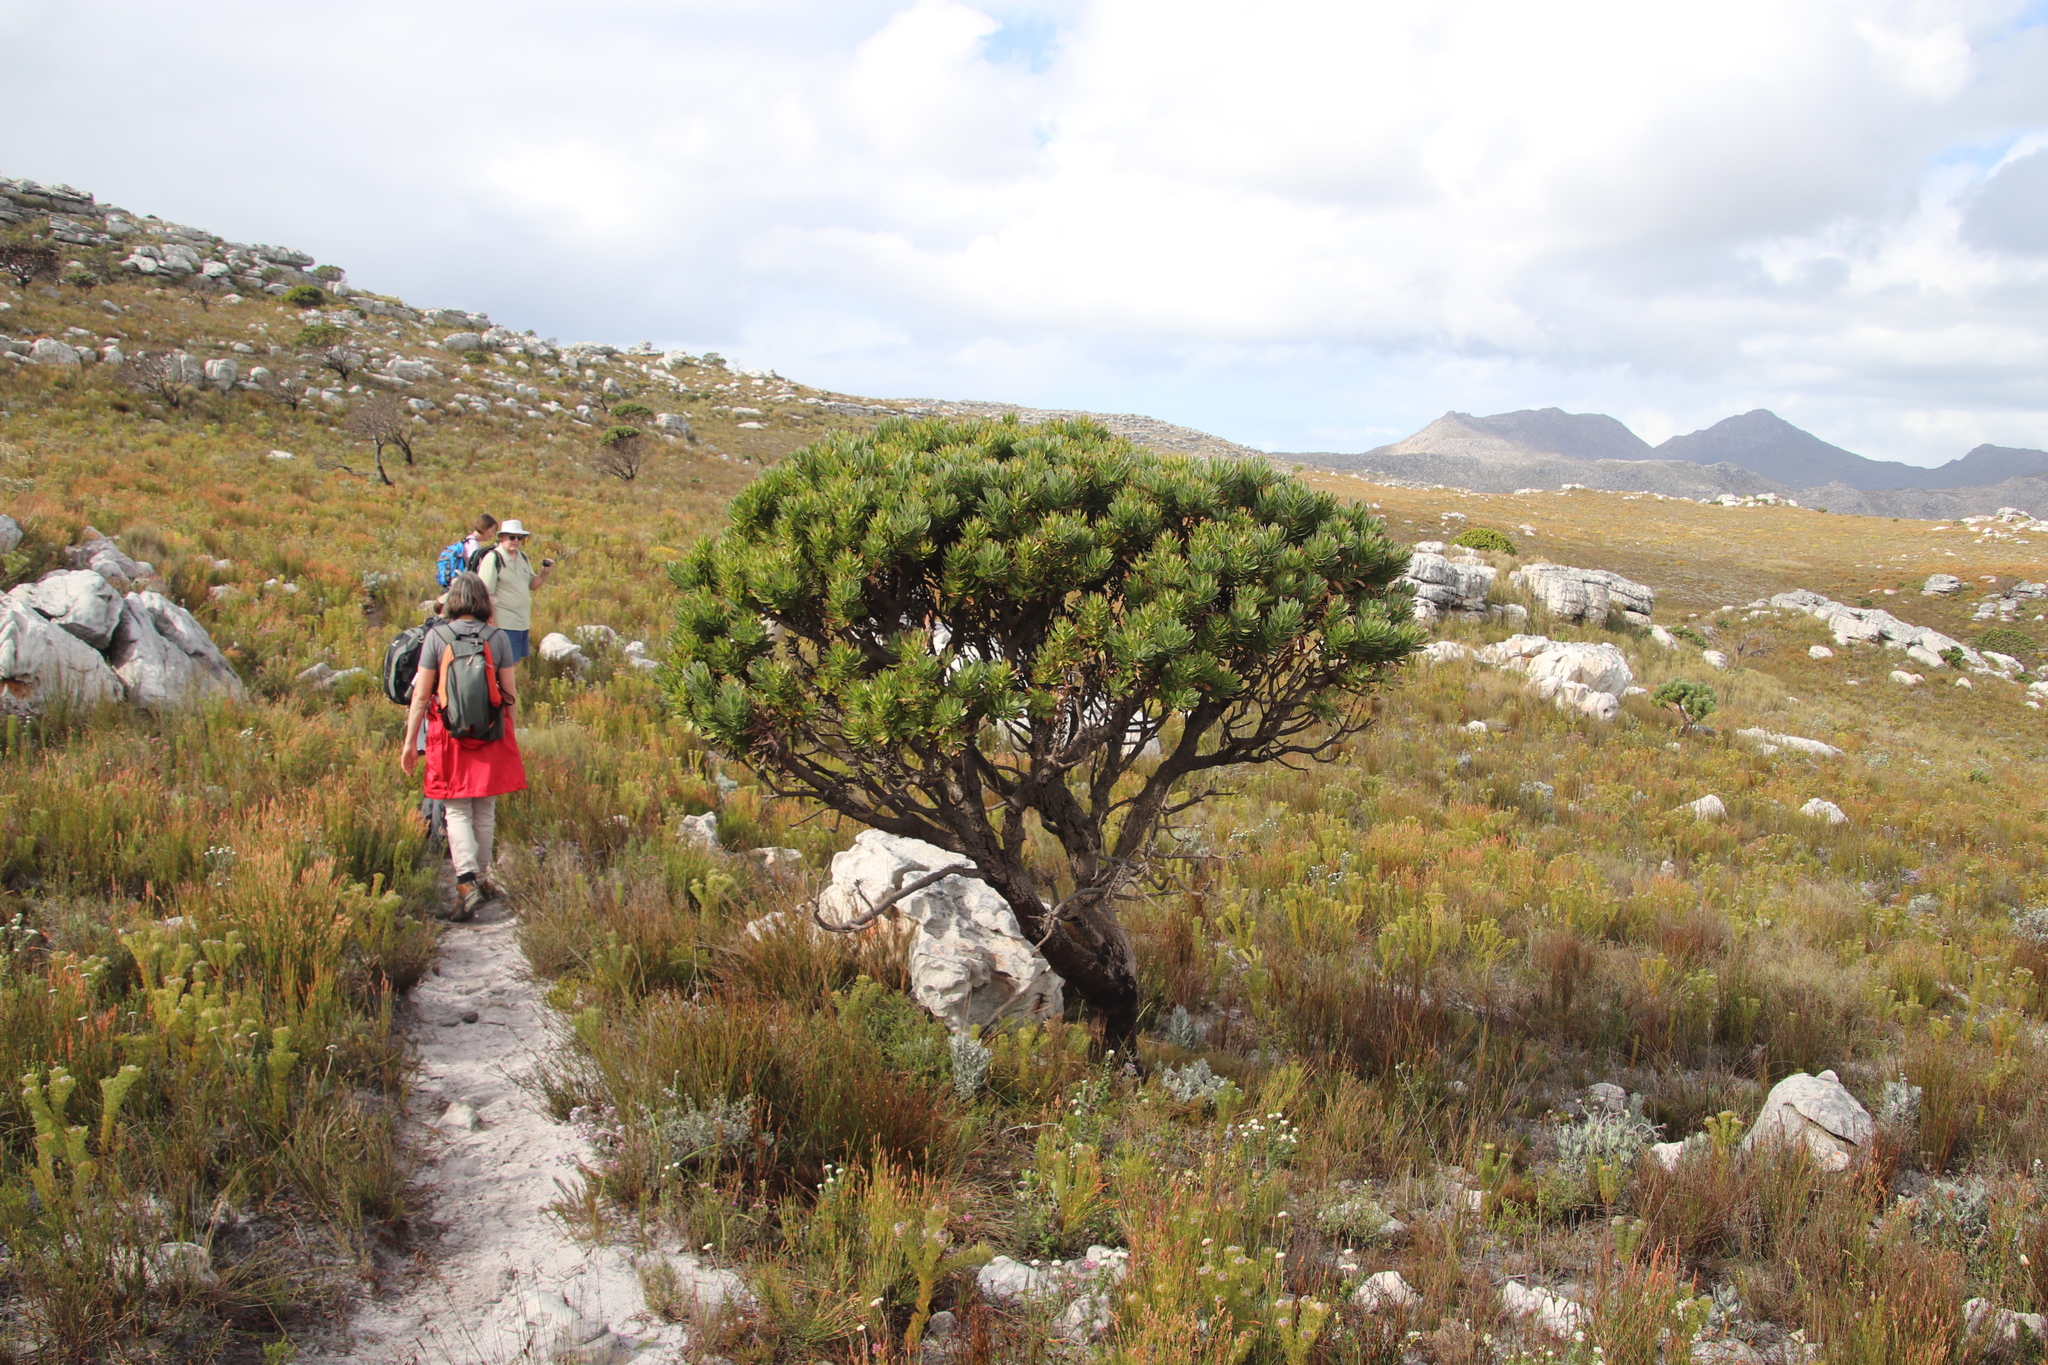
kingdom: Plantae
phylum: Tracheophyta
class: Magnoliopsida
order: Proteales
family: Proteaceae
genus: Mimetes
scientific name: Mimetes fimbriifolius
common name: Fringed bottlebrush
